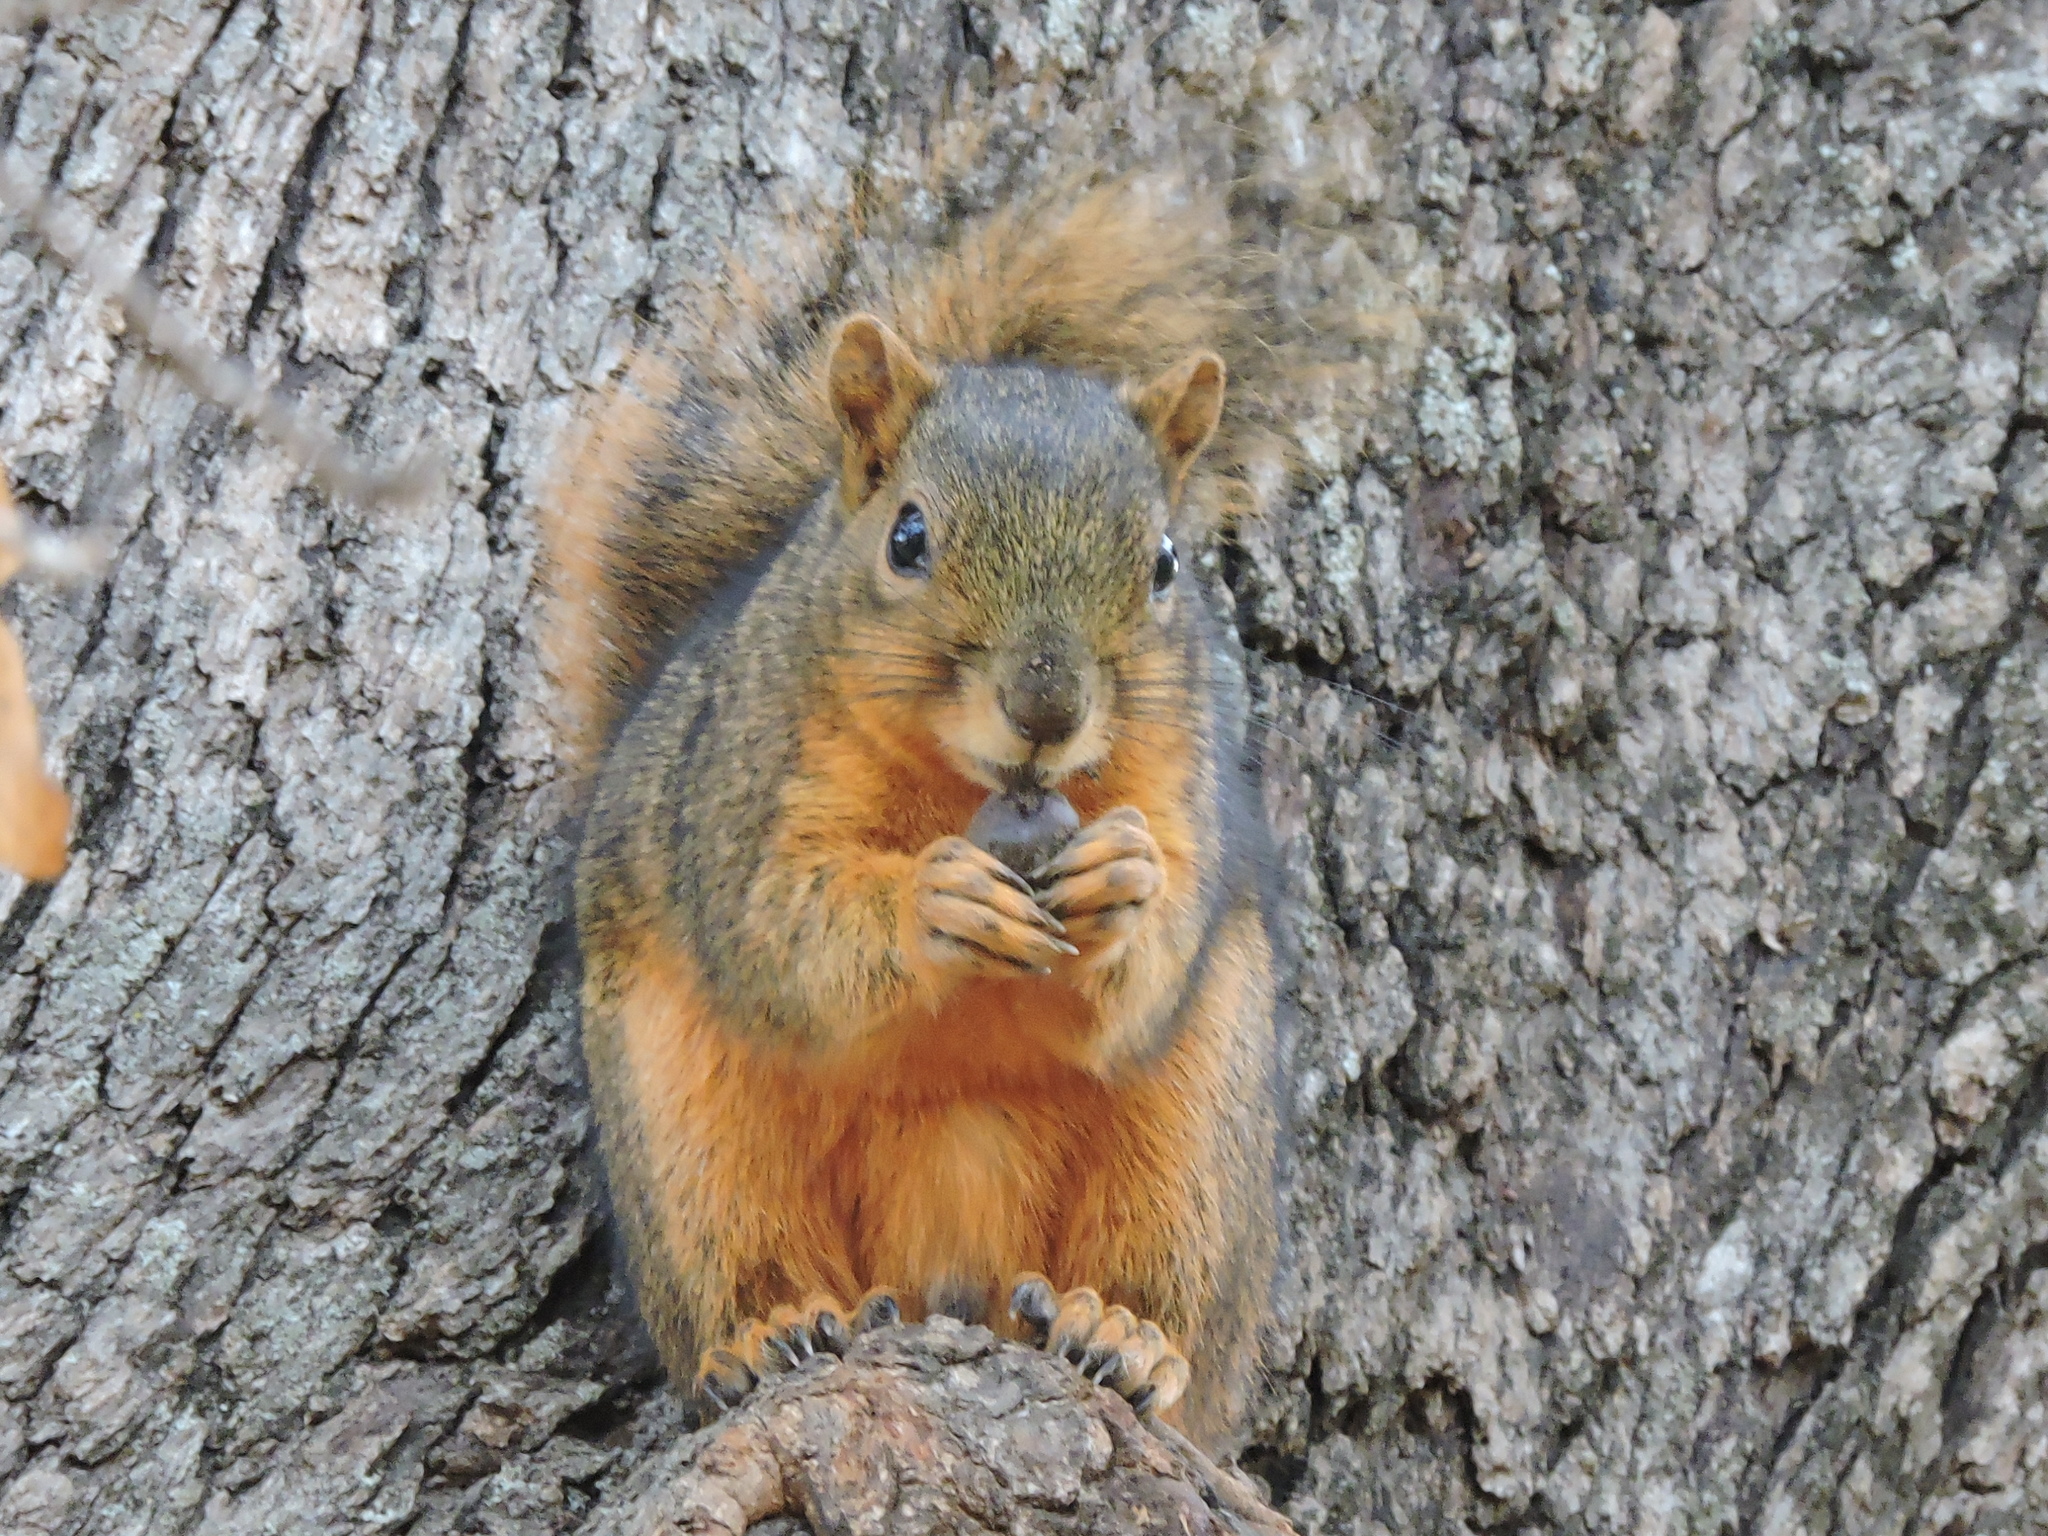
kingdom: Animalia
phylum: Chordata
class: Mammalia
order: Rodentia
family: Sciuridae
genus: Sciurus
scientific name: Sciurus niger
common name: Fox squirrel
